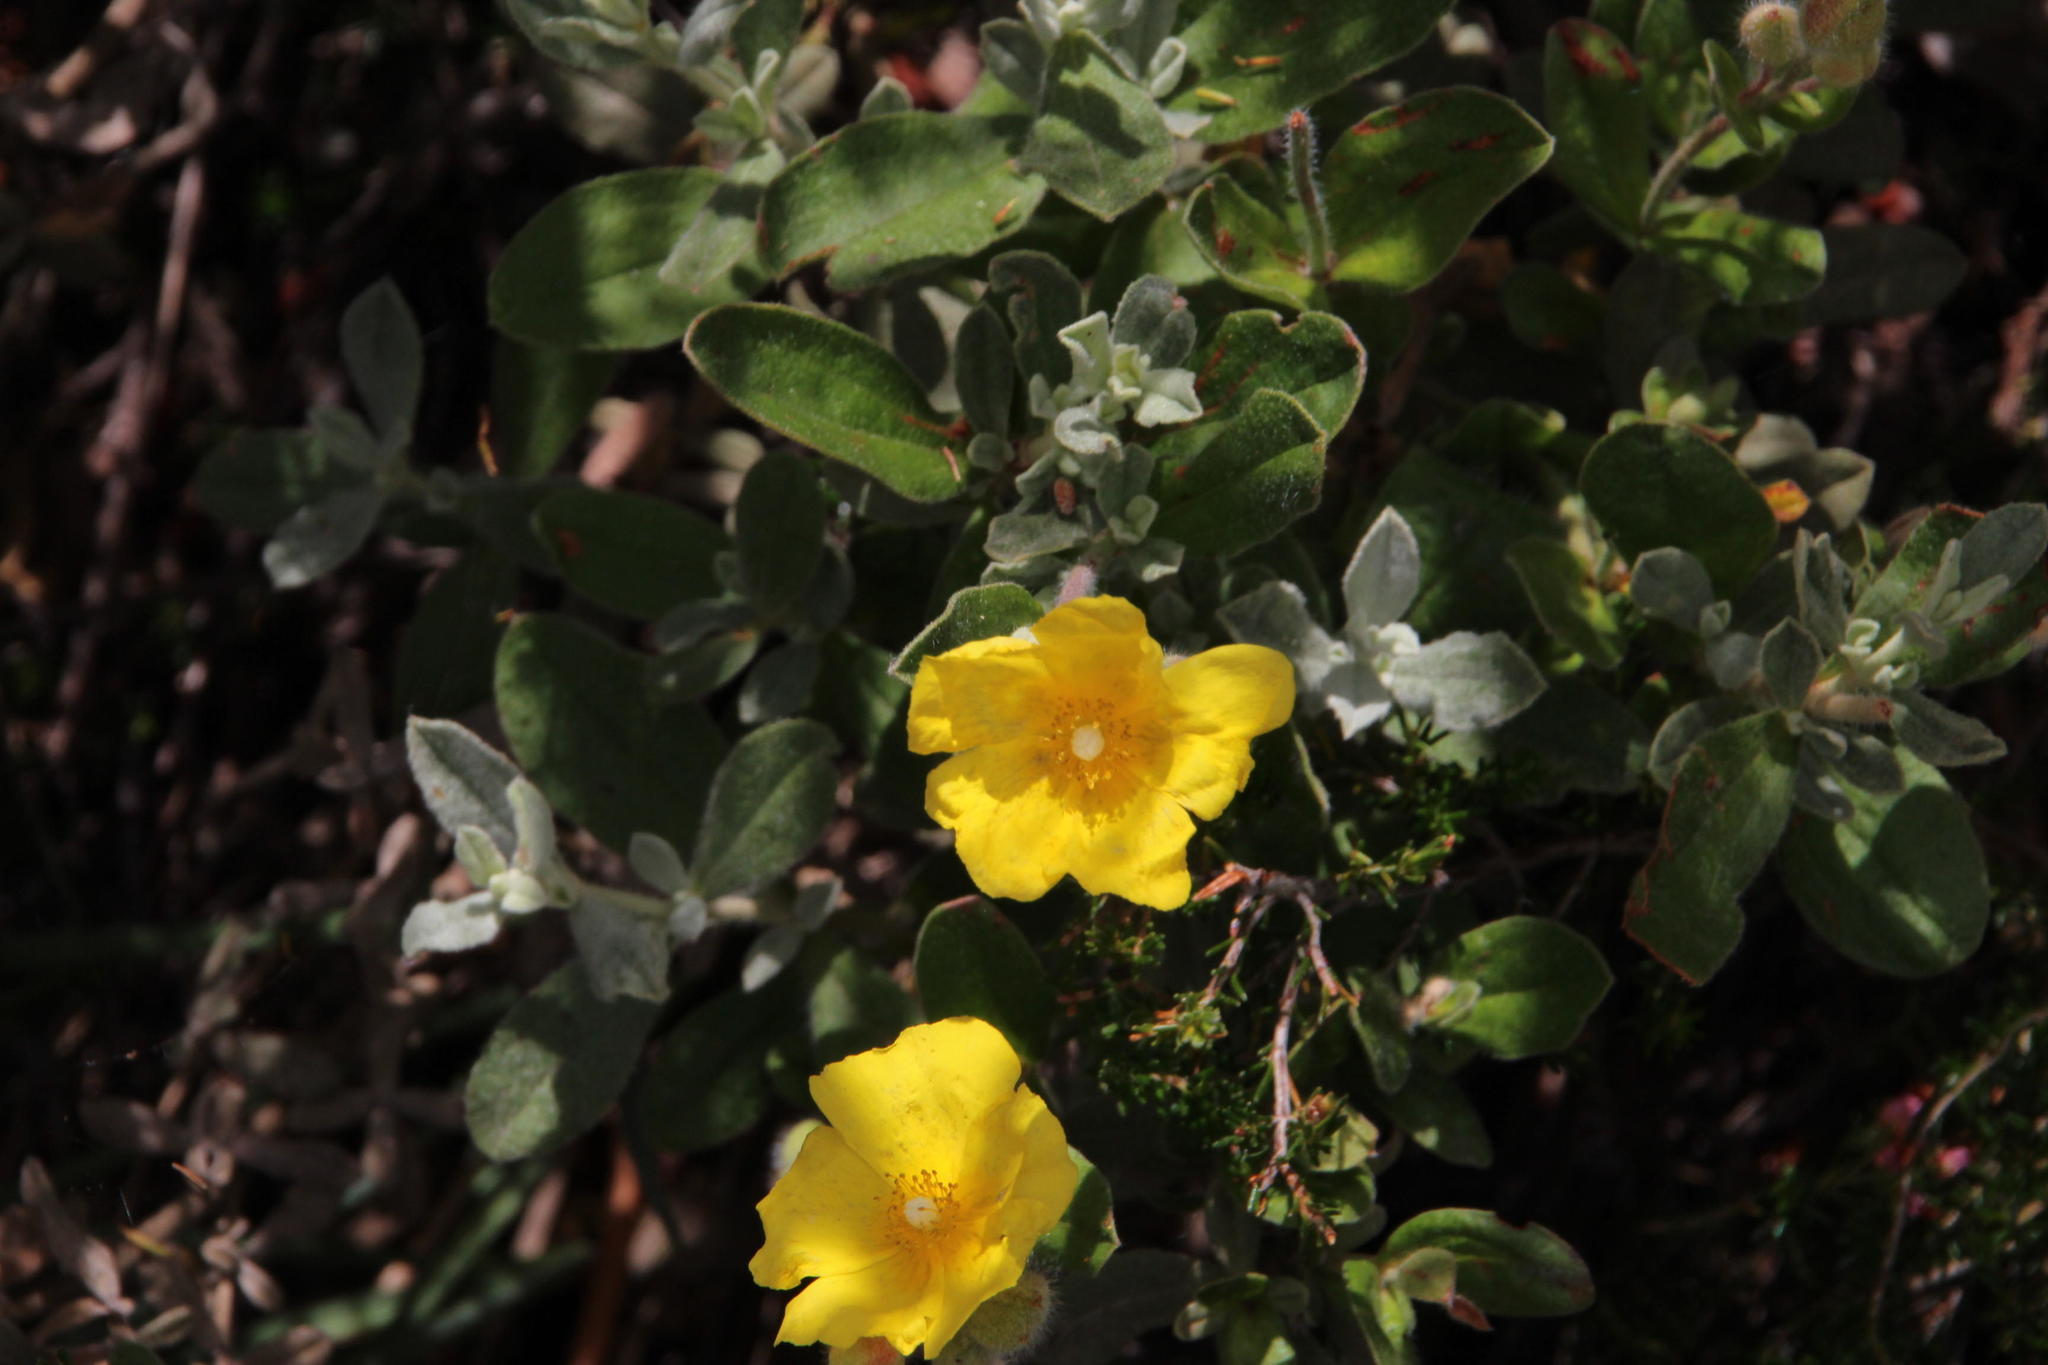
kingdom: Plantae
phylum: Tracheophyta
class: Magnoliopsida
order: Malvales
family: Cistaceae
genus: Halimium
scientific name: Halimium lasianthum
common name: Lisbon false sun-rose
